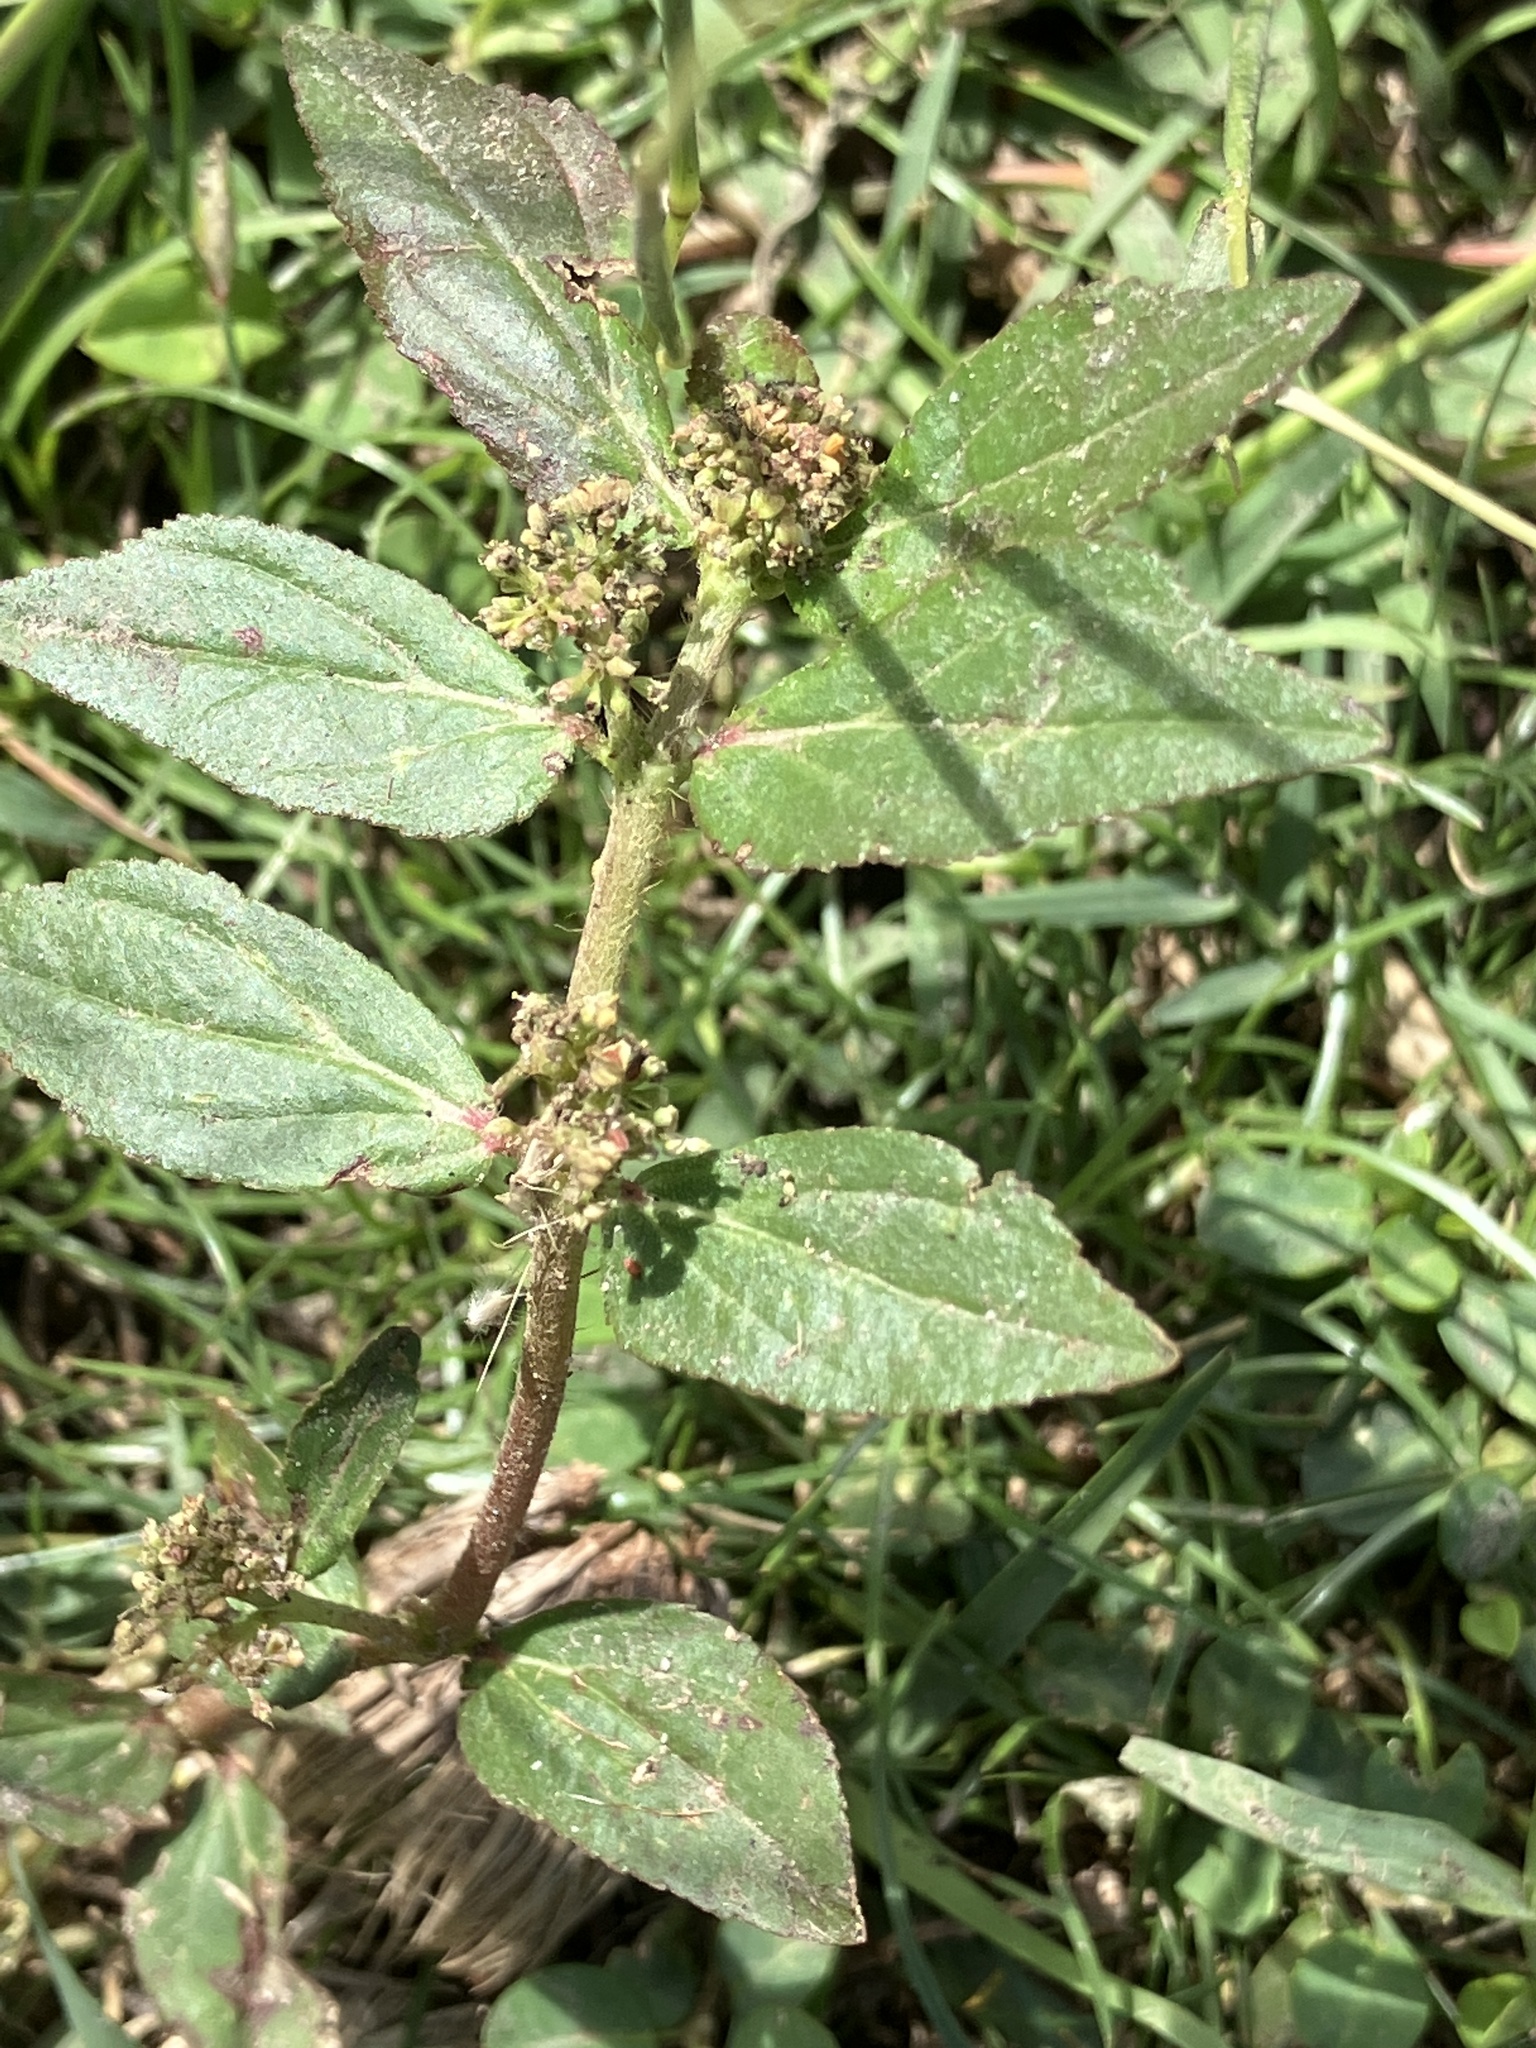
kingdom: Plantae
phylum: Tracheophyta
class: Magnoliopsida
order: Malpighiales
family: Euphorbiaceae
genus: Euphorbia
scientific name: Euphorbia hirta
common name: Pillpod sandmat
